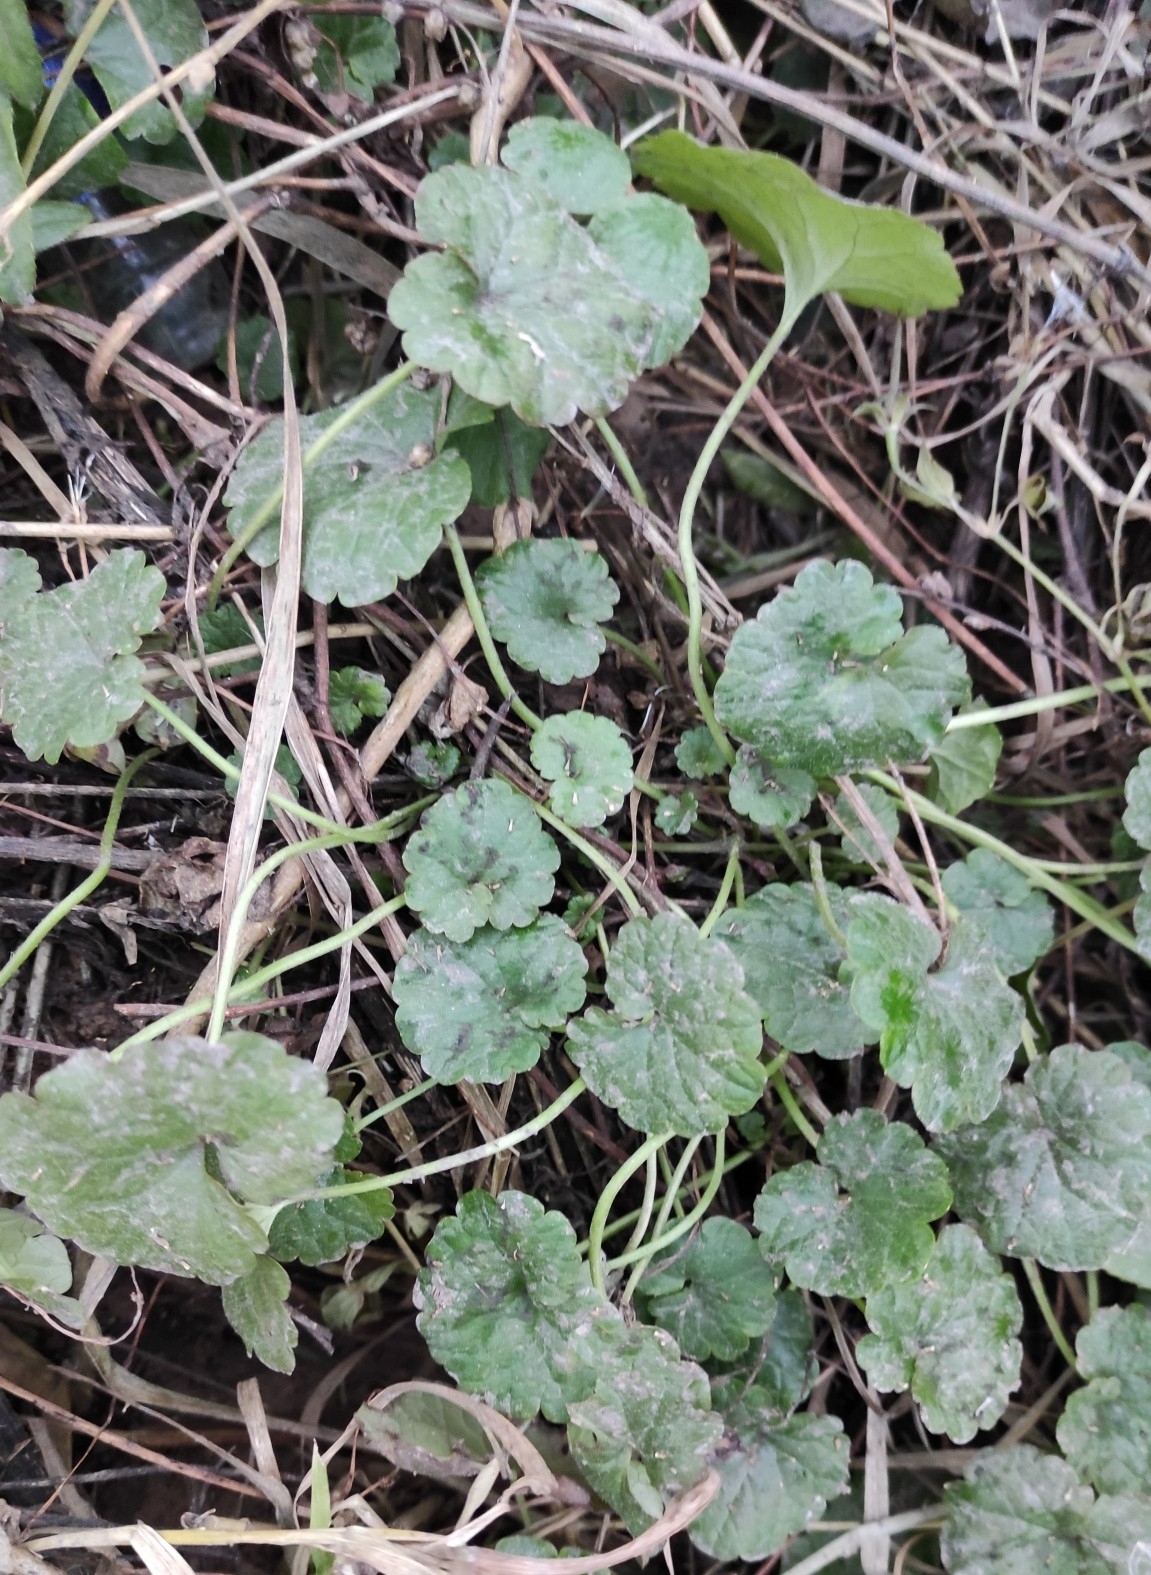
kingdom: Plantae
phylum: Tracheophyta
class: Magnoliopsida
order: Lamiales
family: Lamiaceae
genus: Glechoma
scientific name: Glechoma hederacea
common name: Ground ivy
